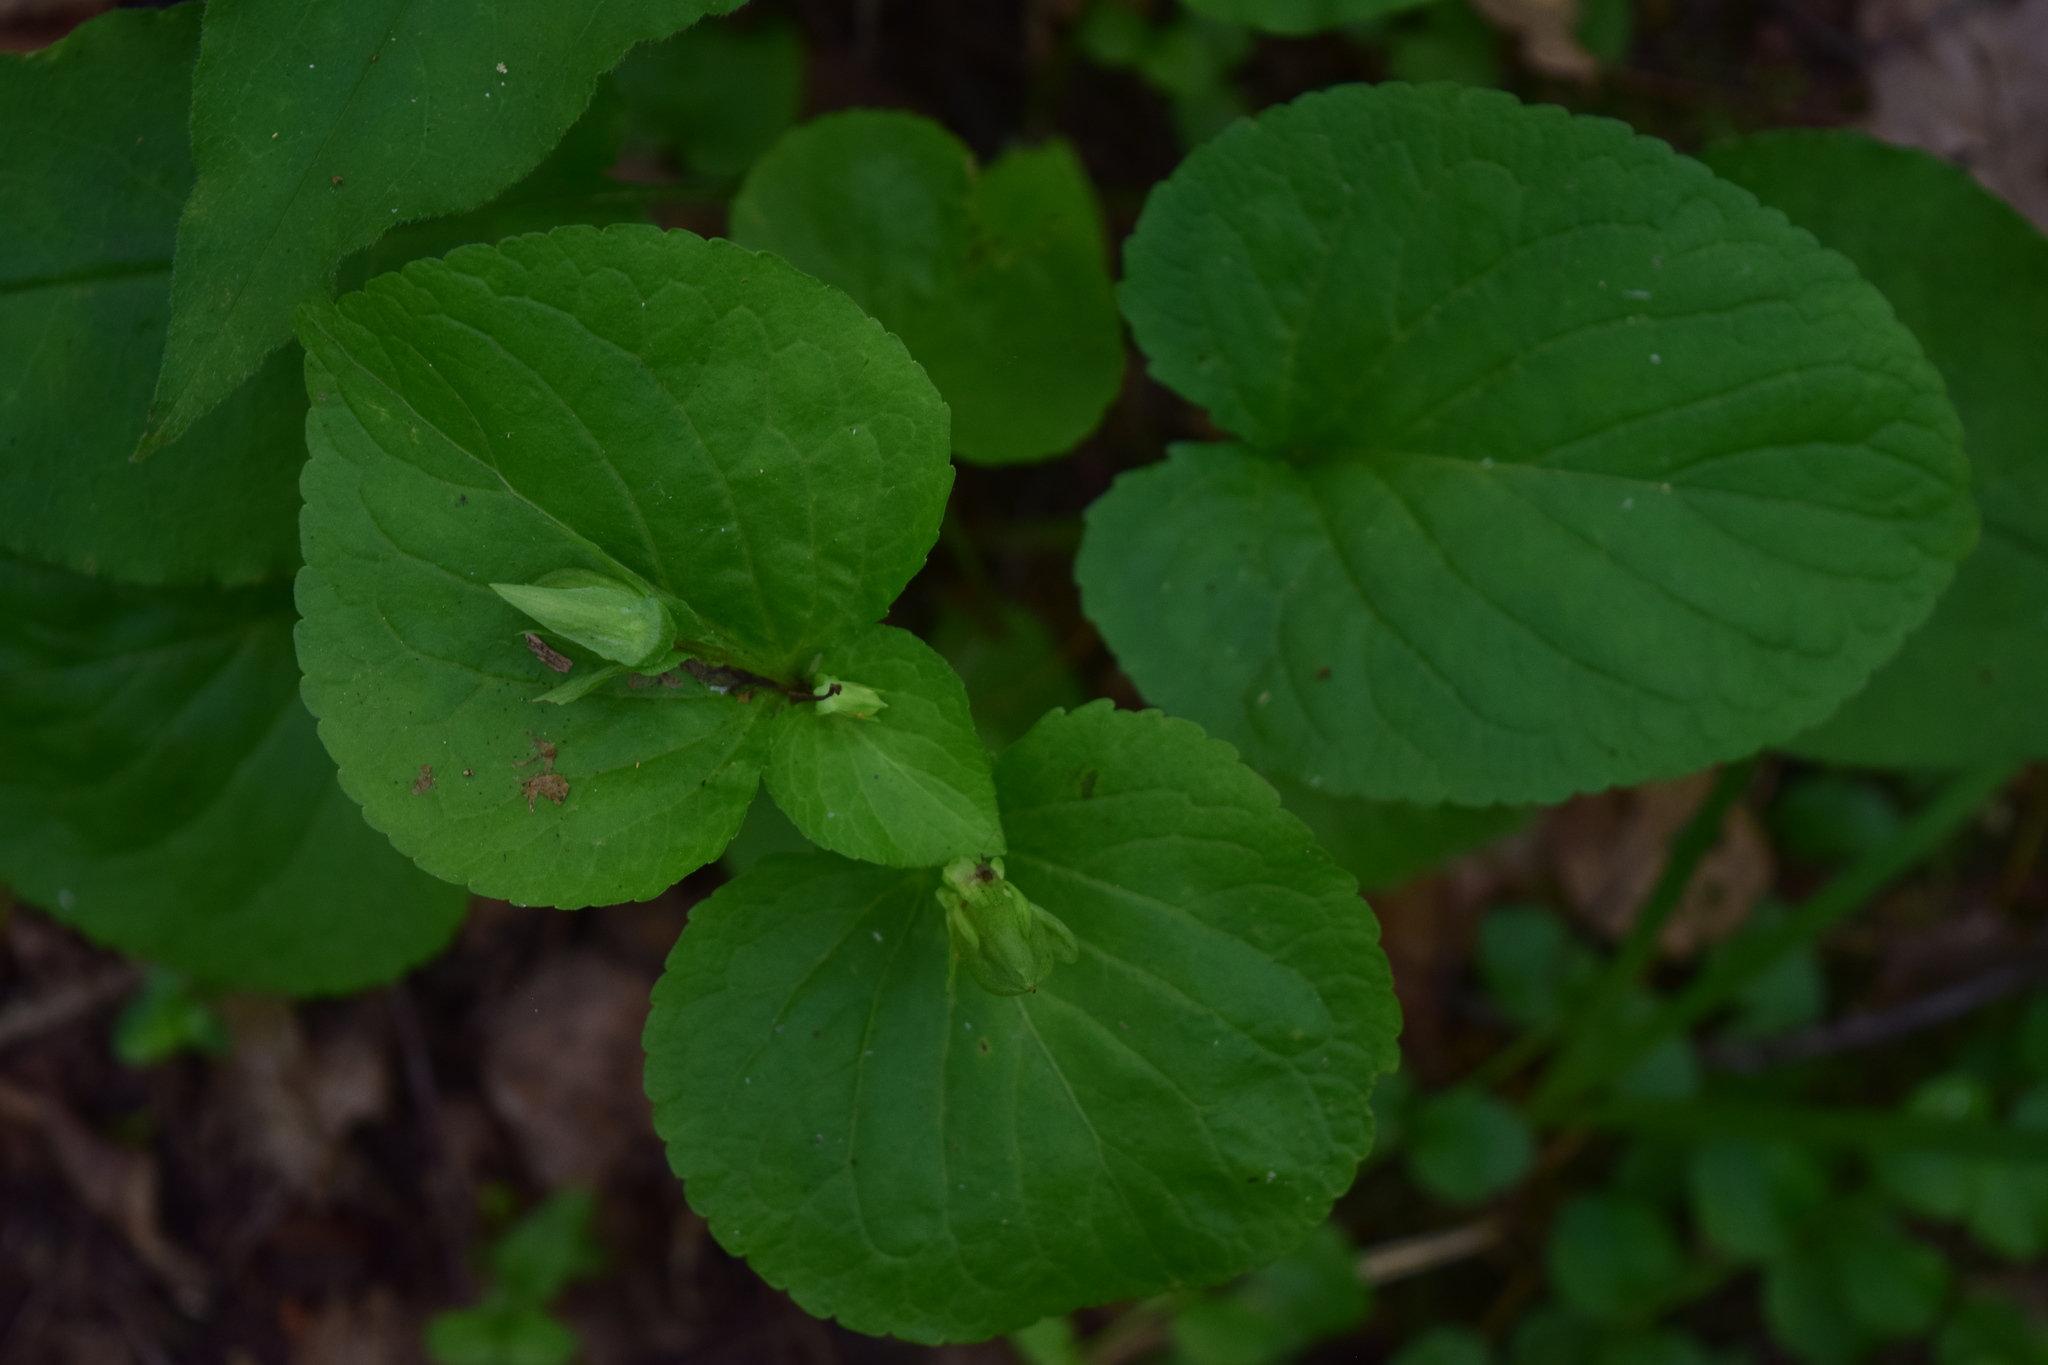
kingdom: Plantae
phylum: Tracheophyta
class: Magnoliopsida
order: Malpighiales
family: Violaceae
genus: Viola
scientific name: Viola mirabilis
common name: Wonder violet
